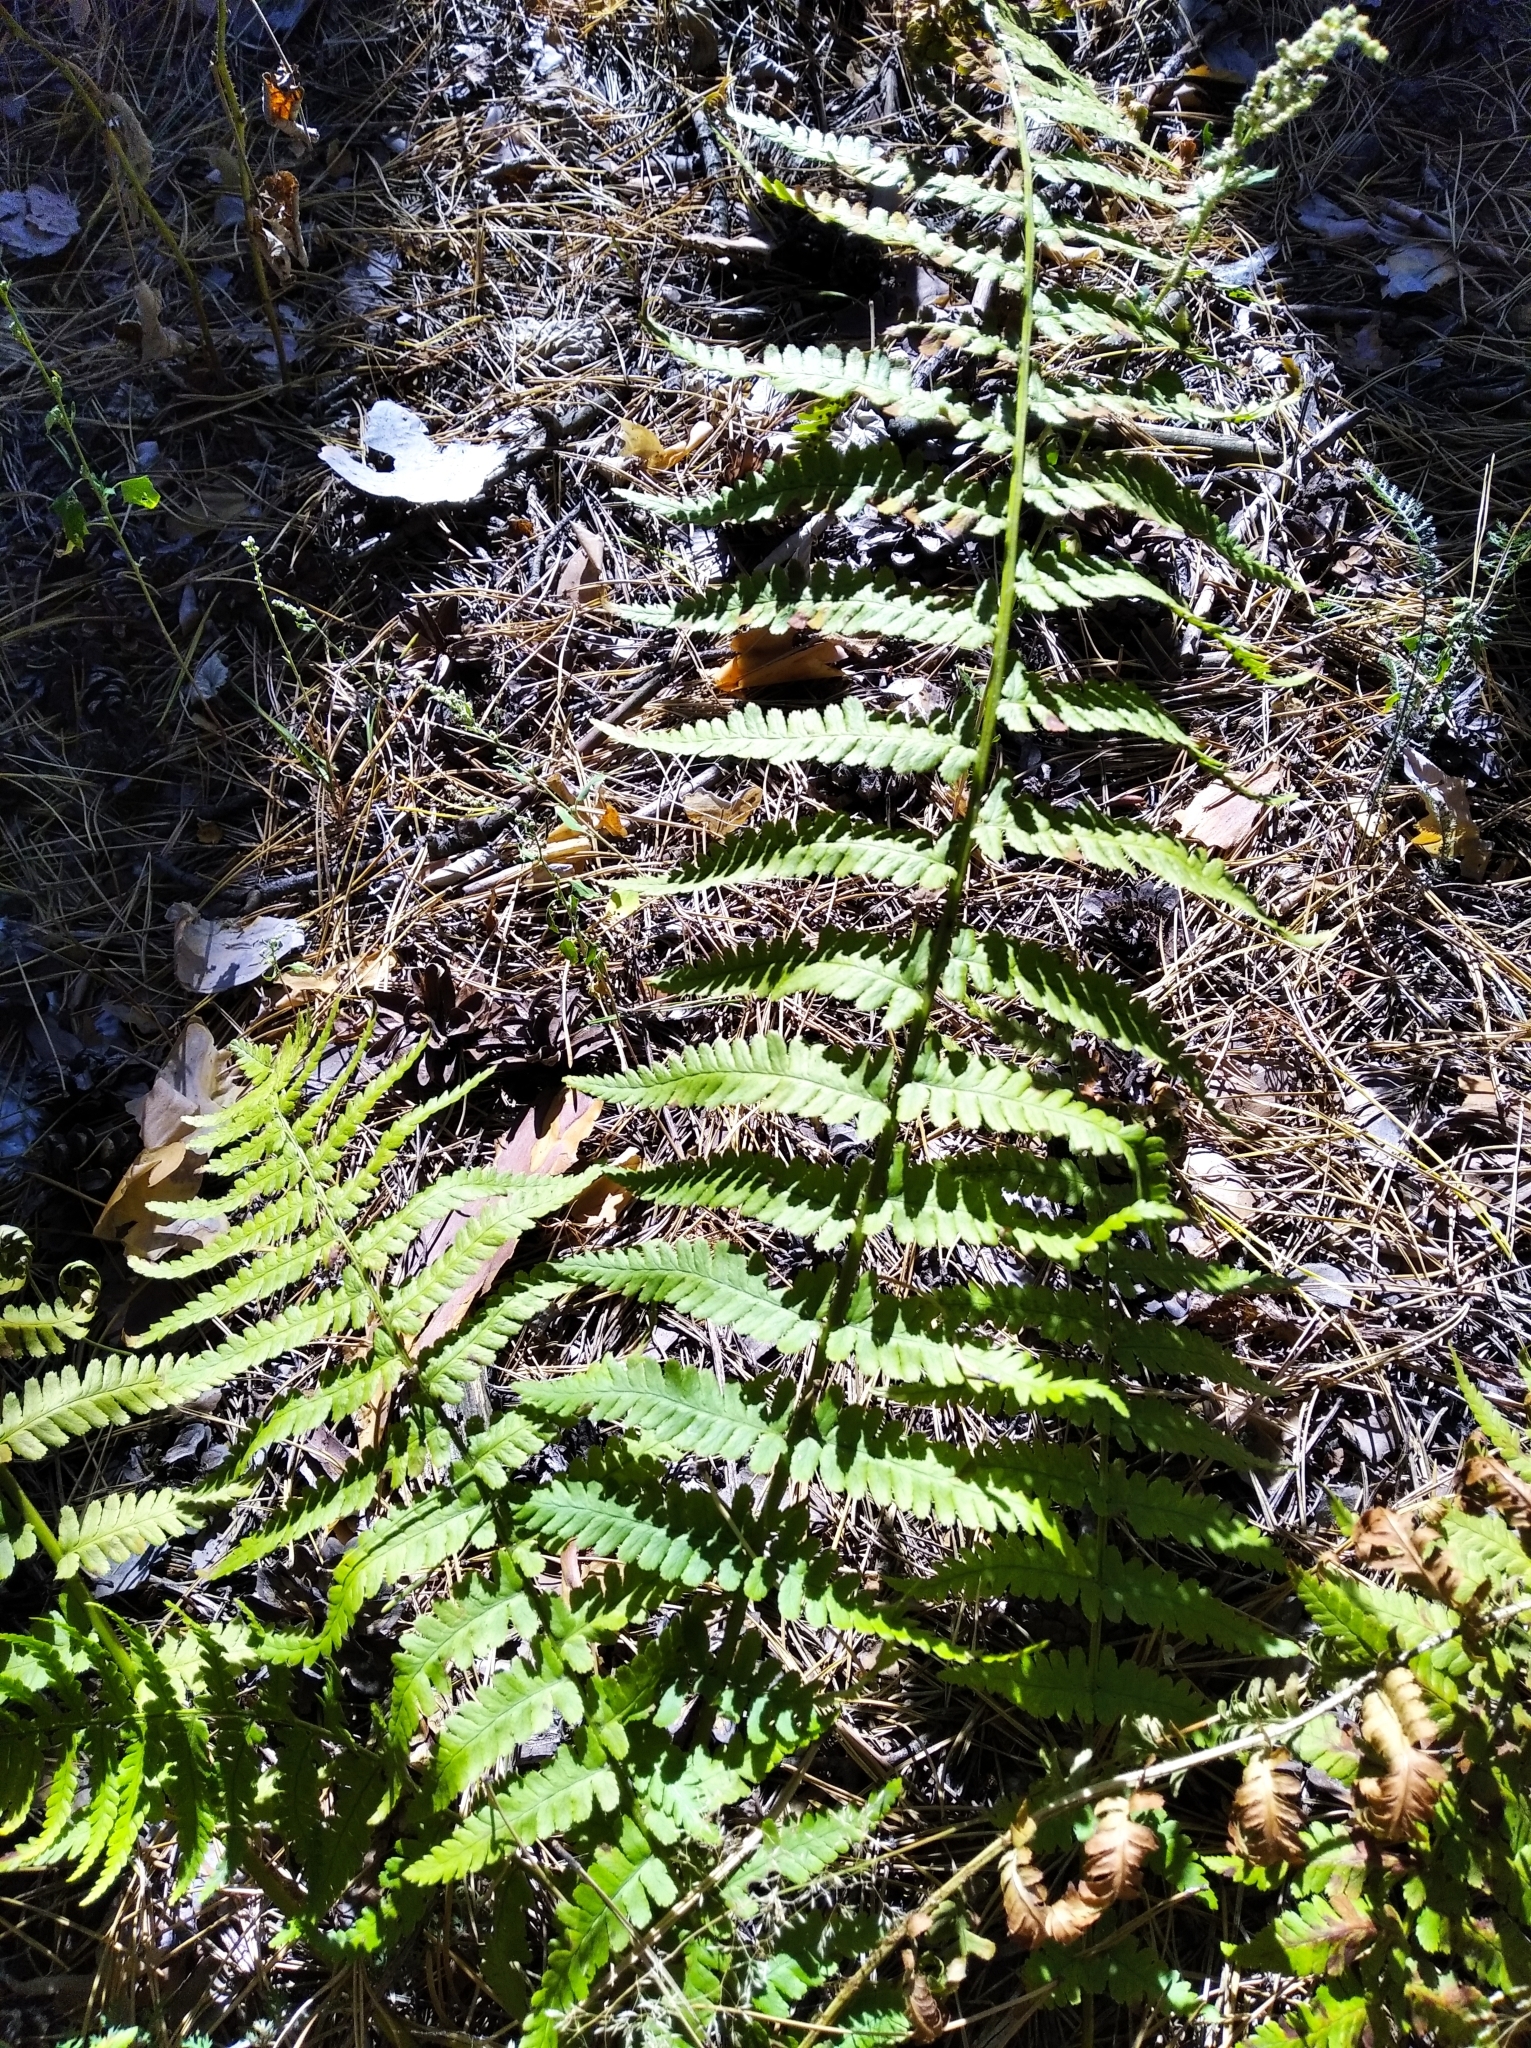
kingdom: Plantae
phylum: Tracheophyta
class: Polypodiopsida
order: Polypodiales
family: Dryopteridaceae
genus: Dryopteris
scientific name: Dryopteris filix-mas
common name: Male fern
